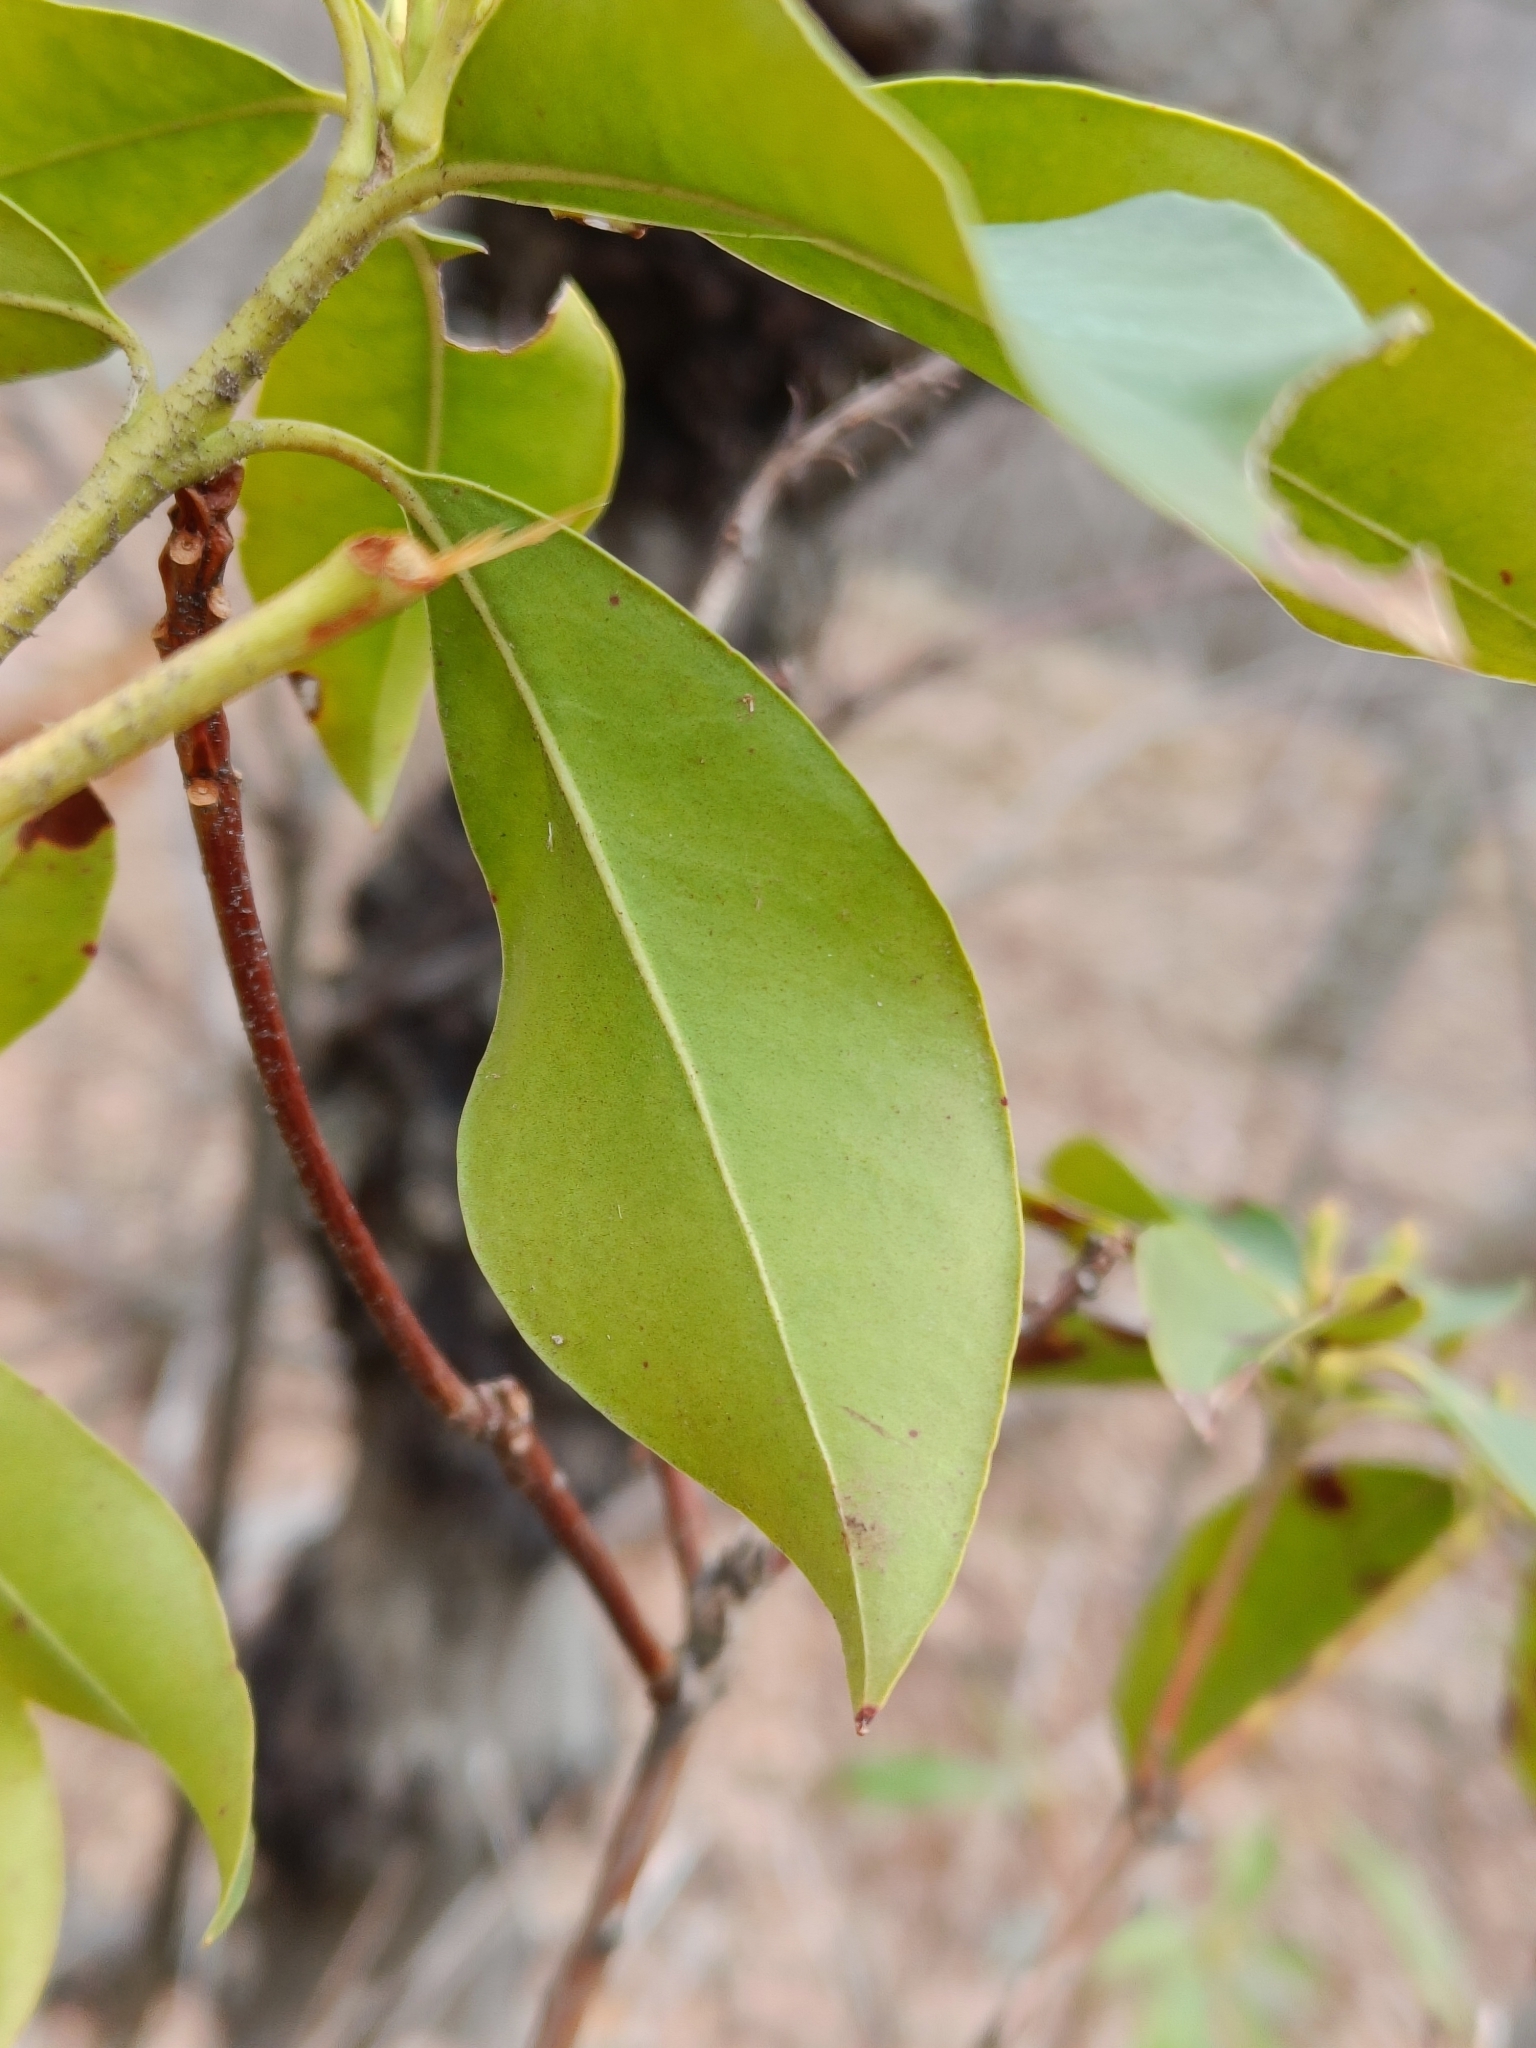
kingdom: Plantae
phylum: Tracheophyta
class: Magnoliopsida
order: Ericales
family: Ericaceae
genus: Kalmia
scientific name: Kalmia latifolia
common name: Mountain-laurel
